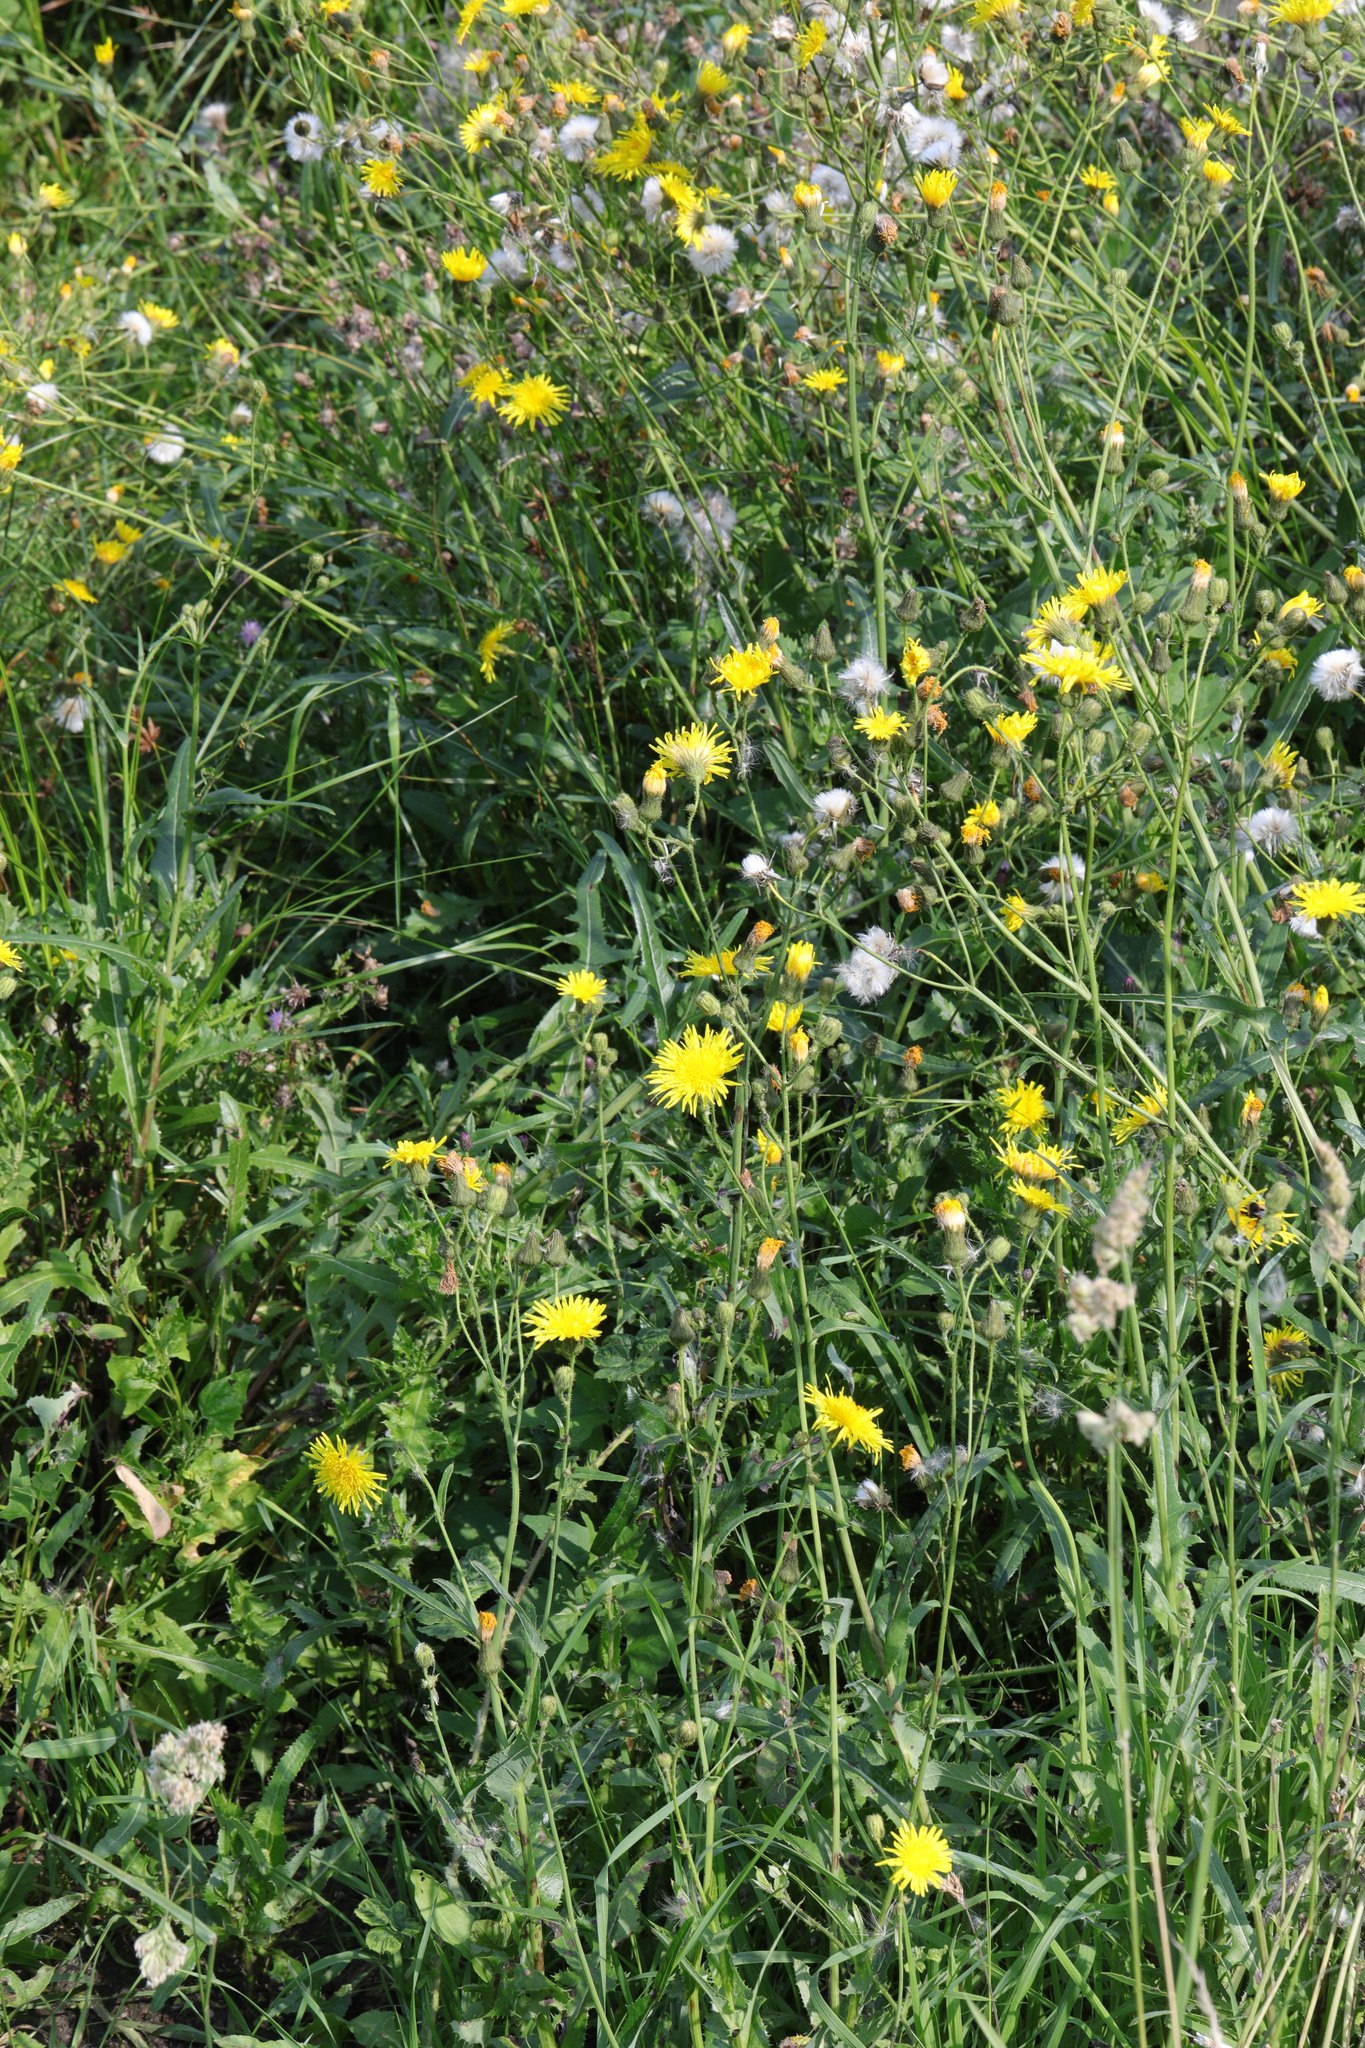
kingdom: Plantae
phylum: Tracheophyta
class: Magnoliopsida
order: Asterales
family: Asteraceae
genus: Sonchus
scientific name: Sonchus arvensis
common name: Perennial sow-thistle
